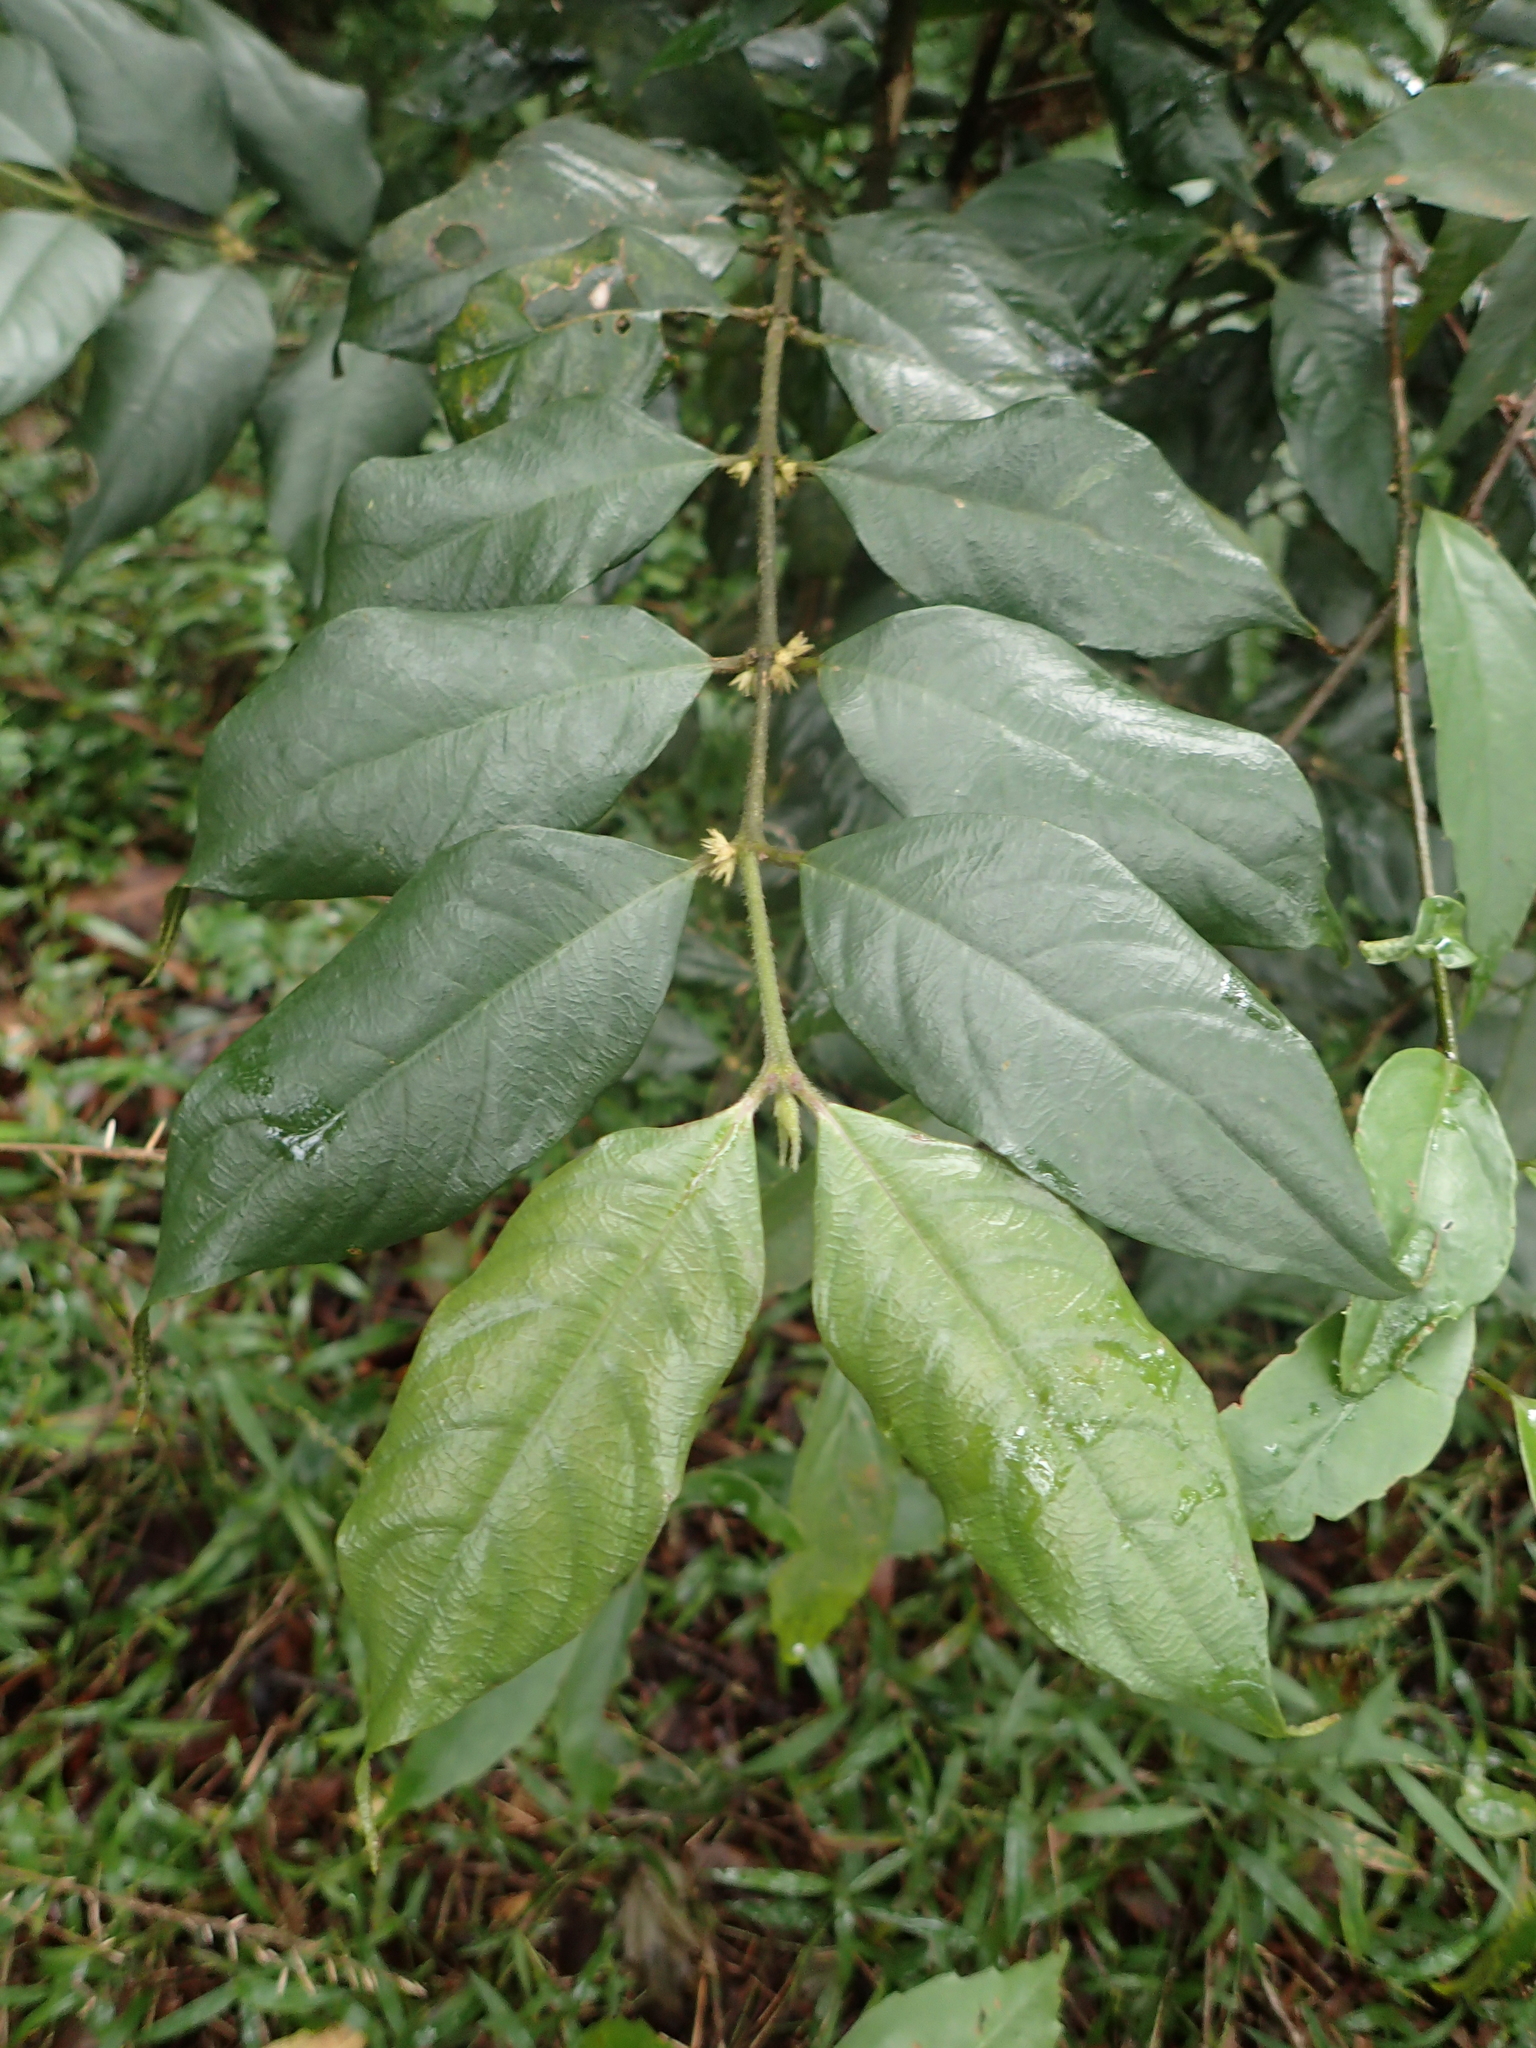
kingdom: Plantae
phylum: Tracheophyta
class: Magnoliopsida
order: Gentianales
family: Rubiaceae
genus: Lasianthus
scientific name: Lasianthus formosensis
